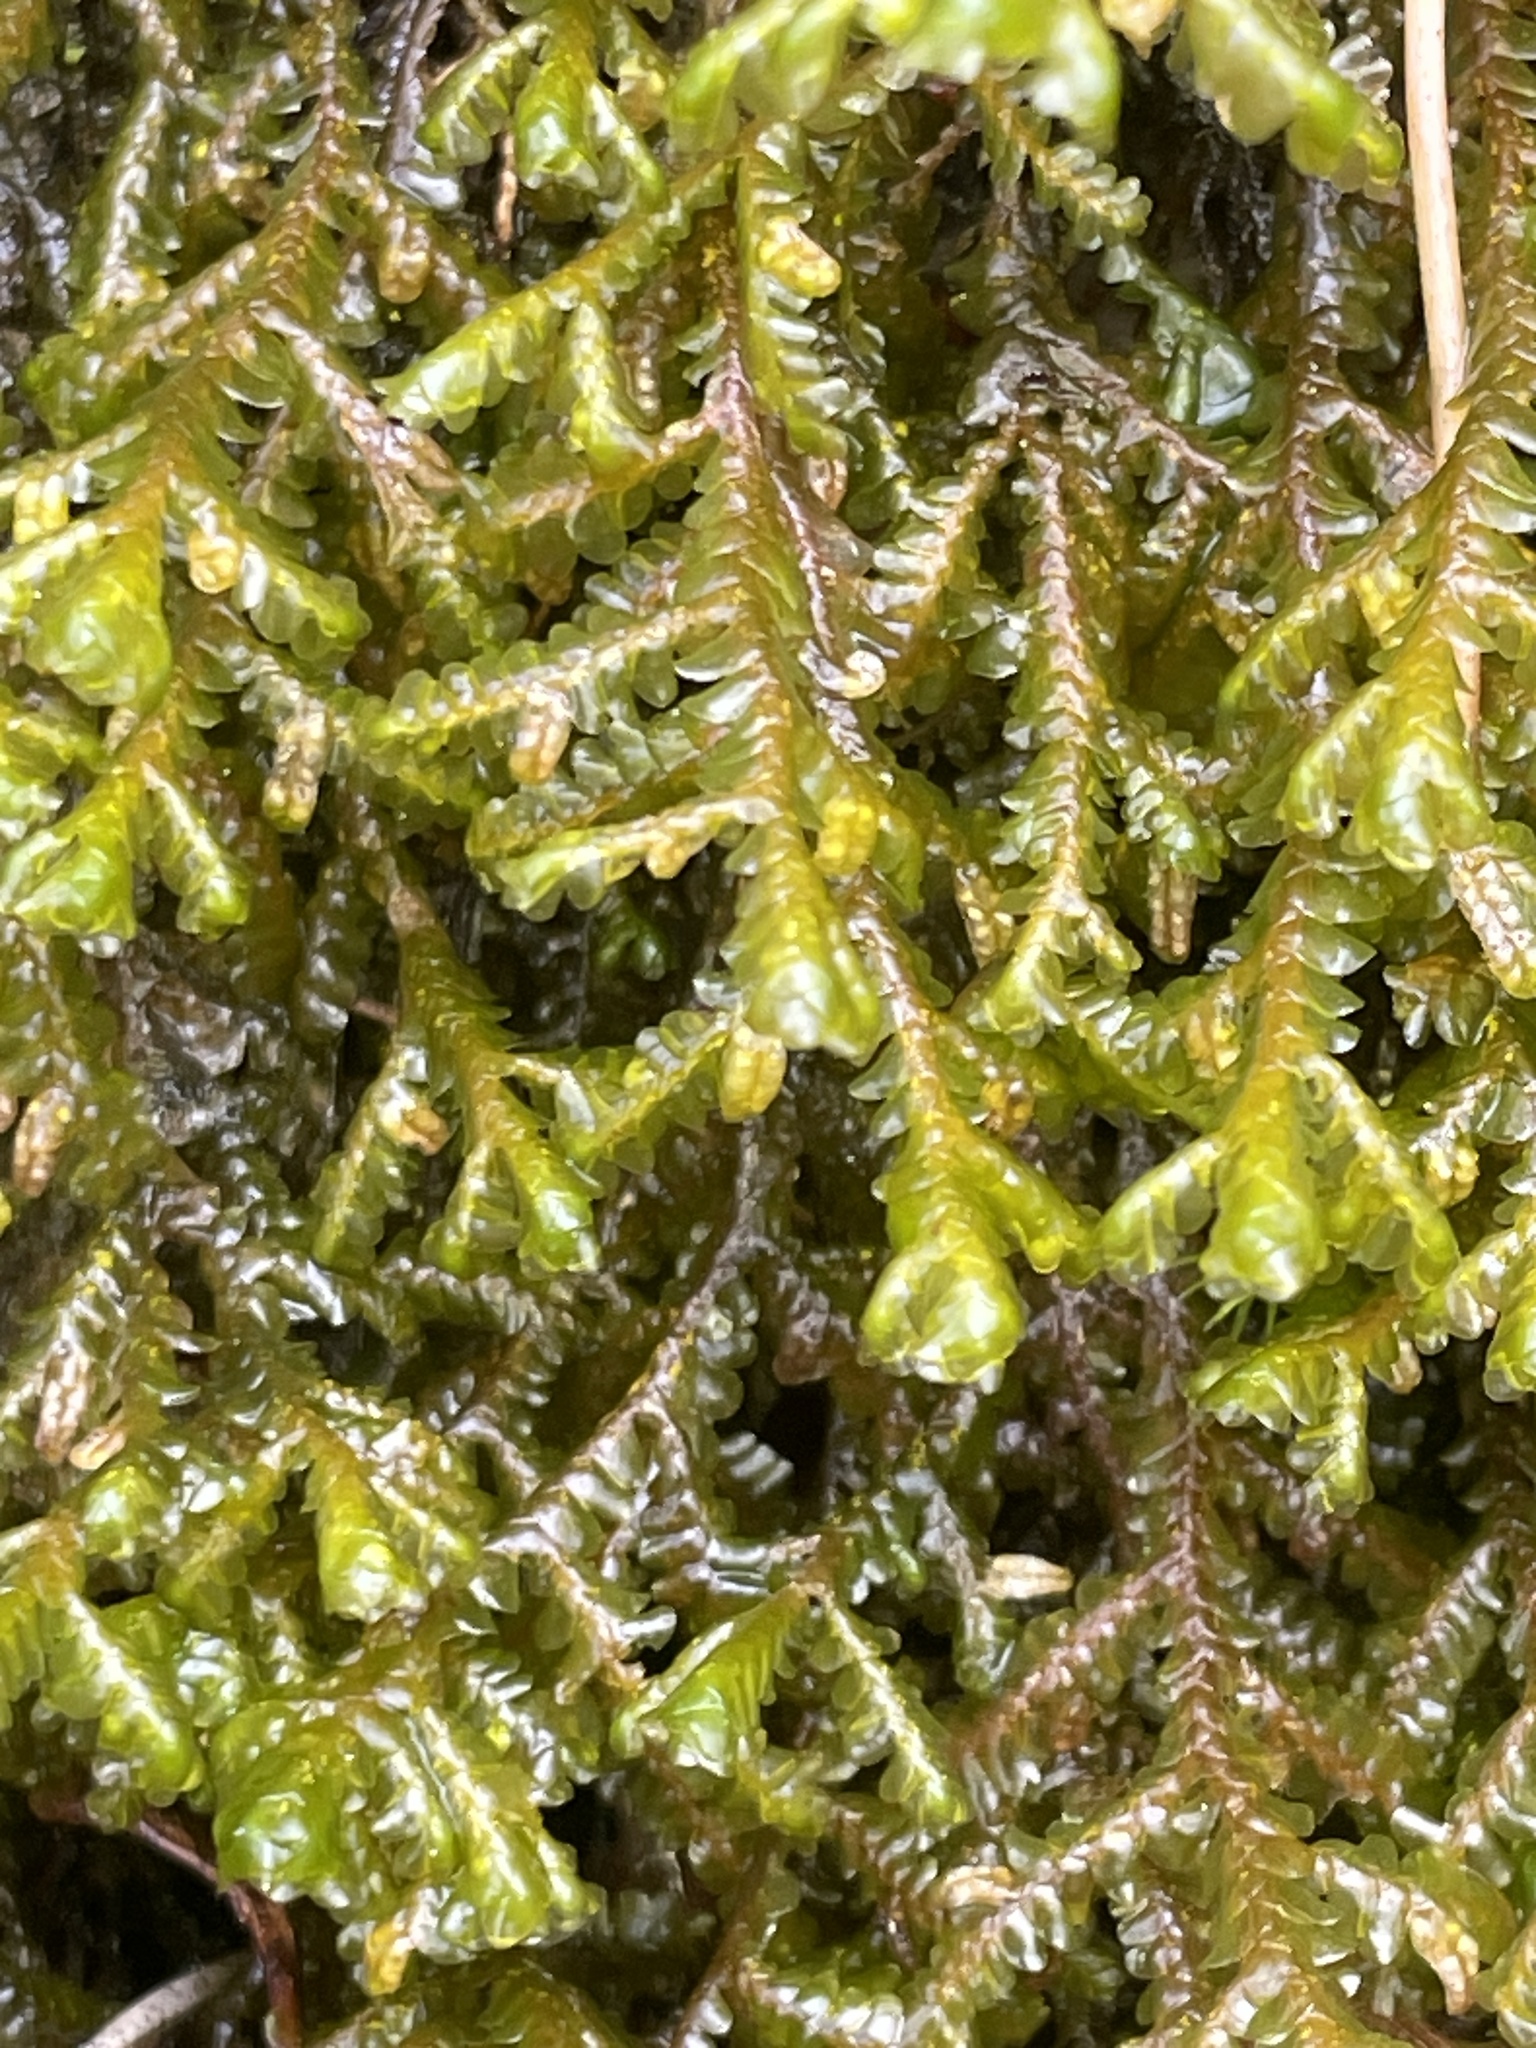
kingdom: Plantae
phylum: Marchantiophyta
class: Jungermanniopsida
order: Porellales
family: Porellaceae
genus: Porella
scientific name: Porella pinnata
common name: Pinnate scalewort
